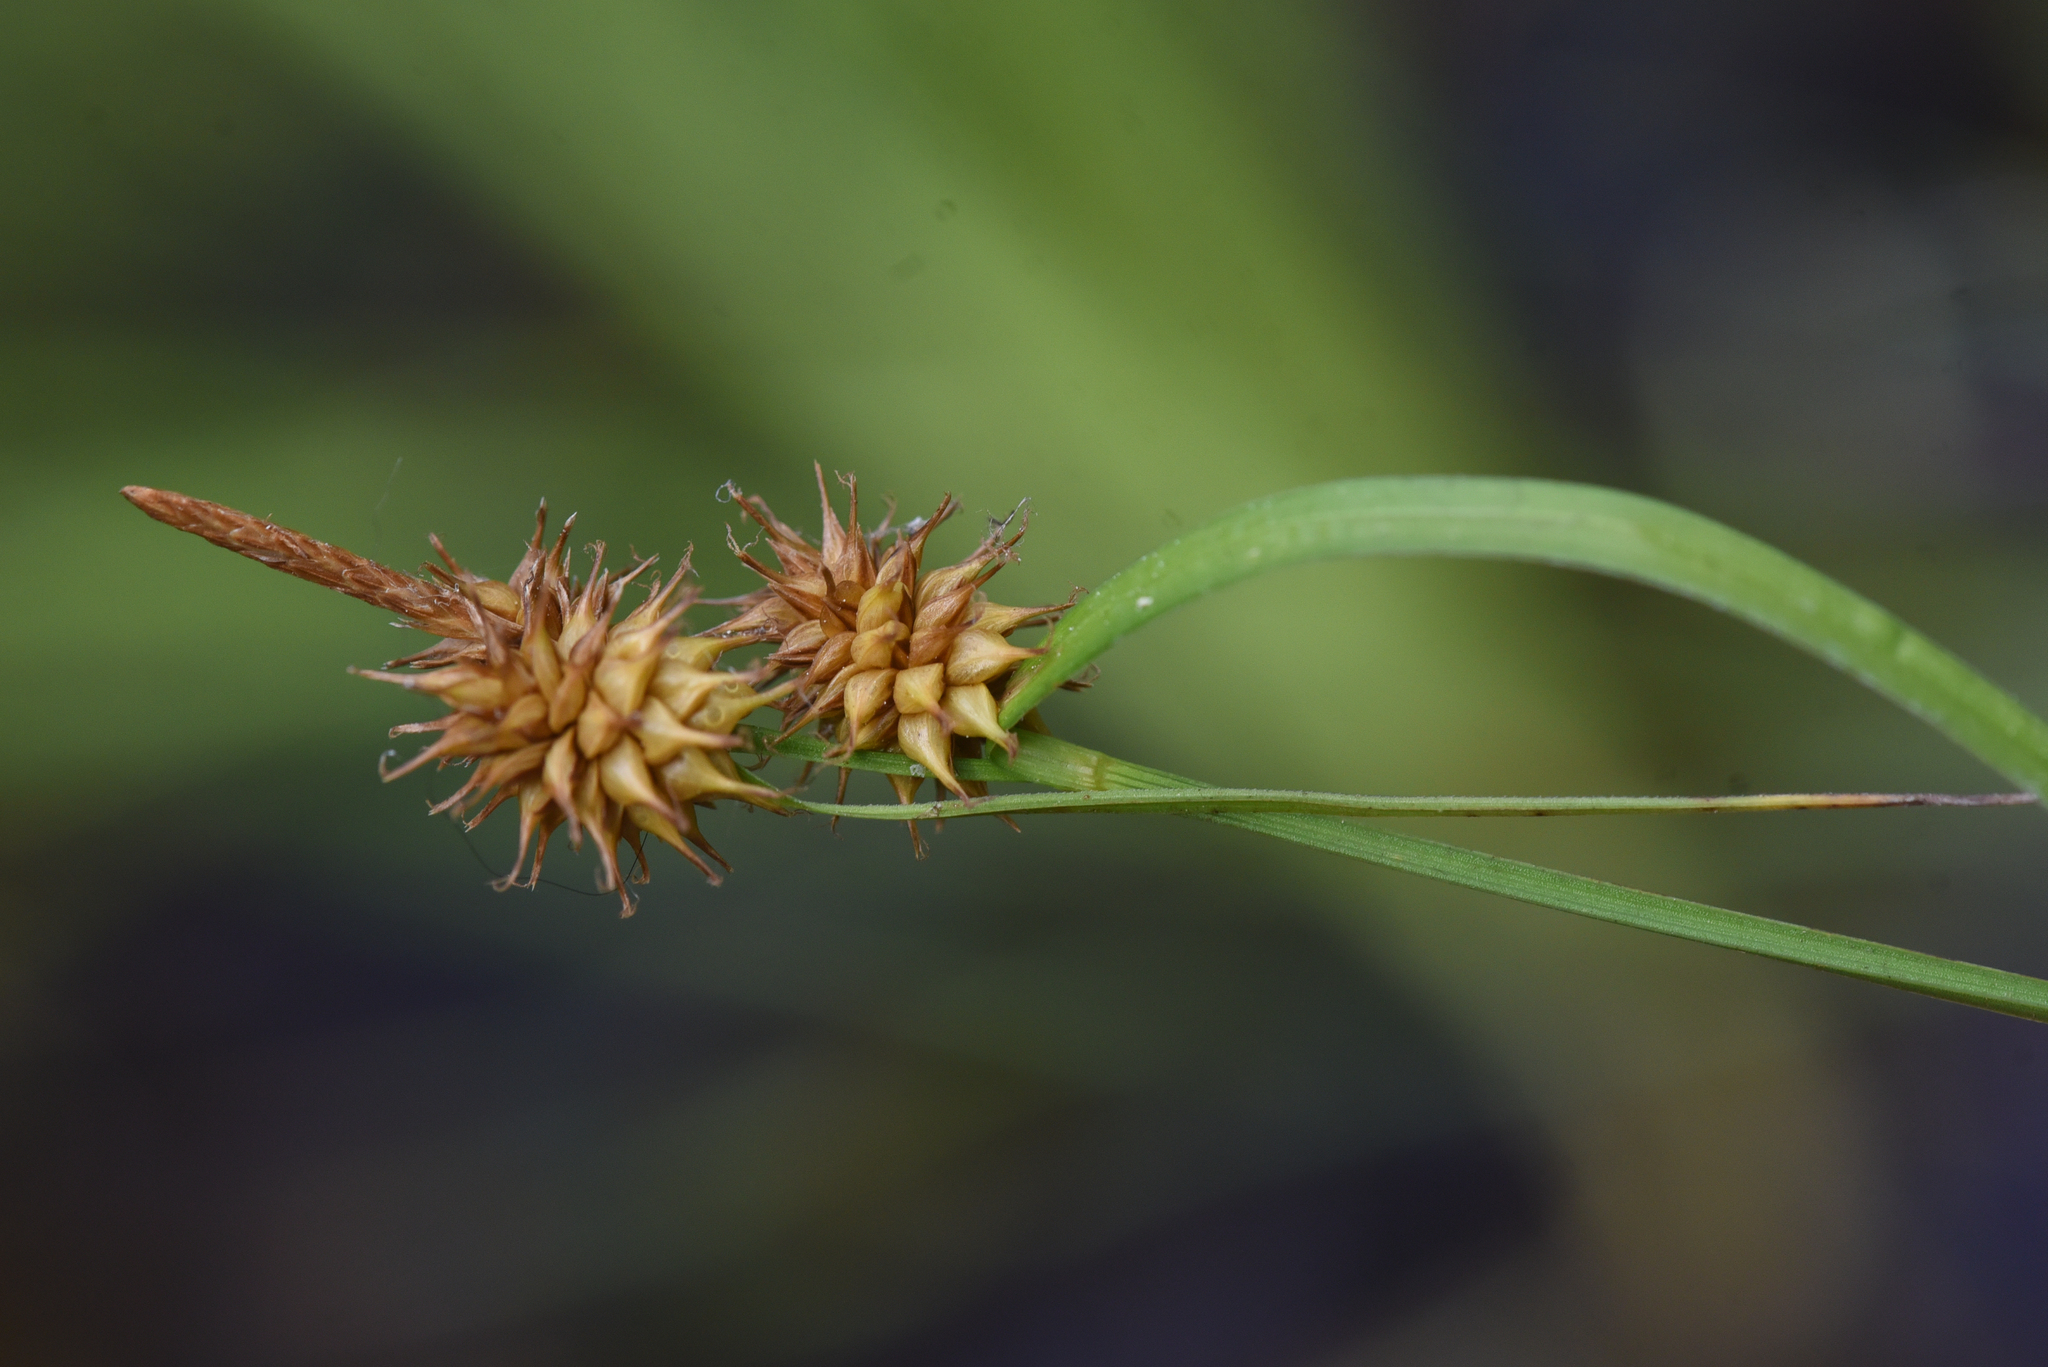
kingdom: Plantae
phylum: Tracheophyta
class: Liliopsida
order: Poales
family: Cyperaceae
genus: Carex
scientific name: Carex flava
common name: Large yellow-sedge
